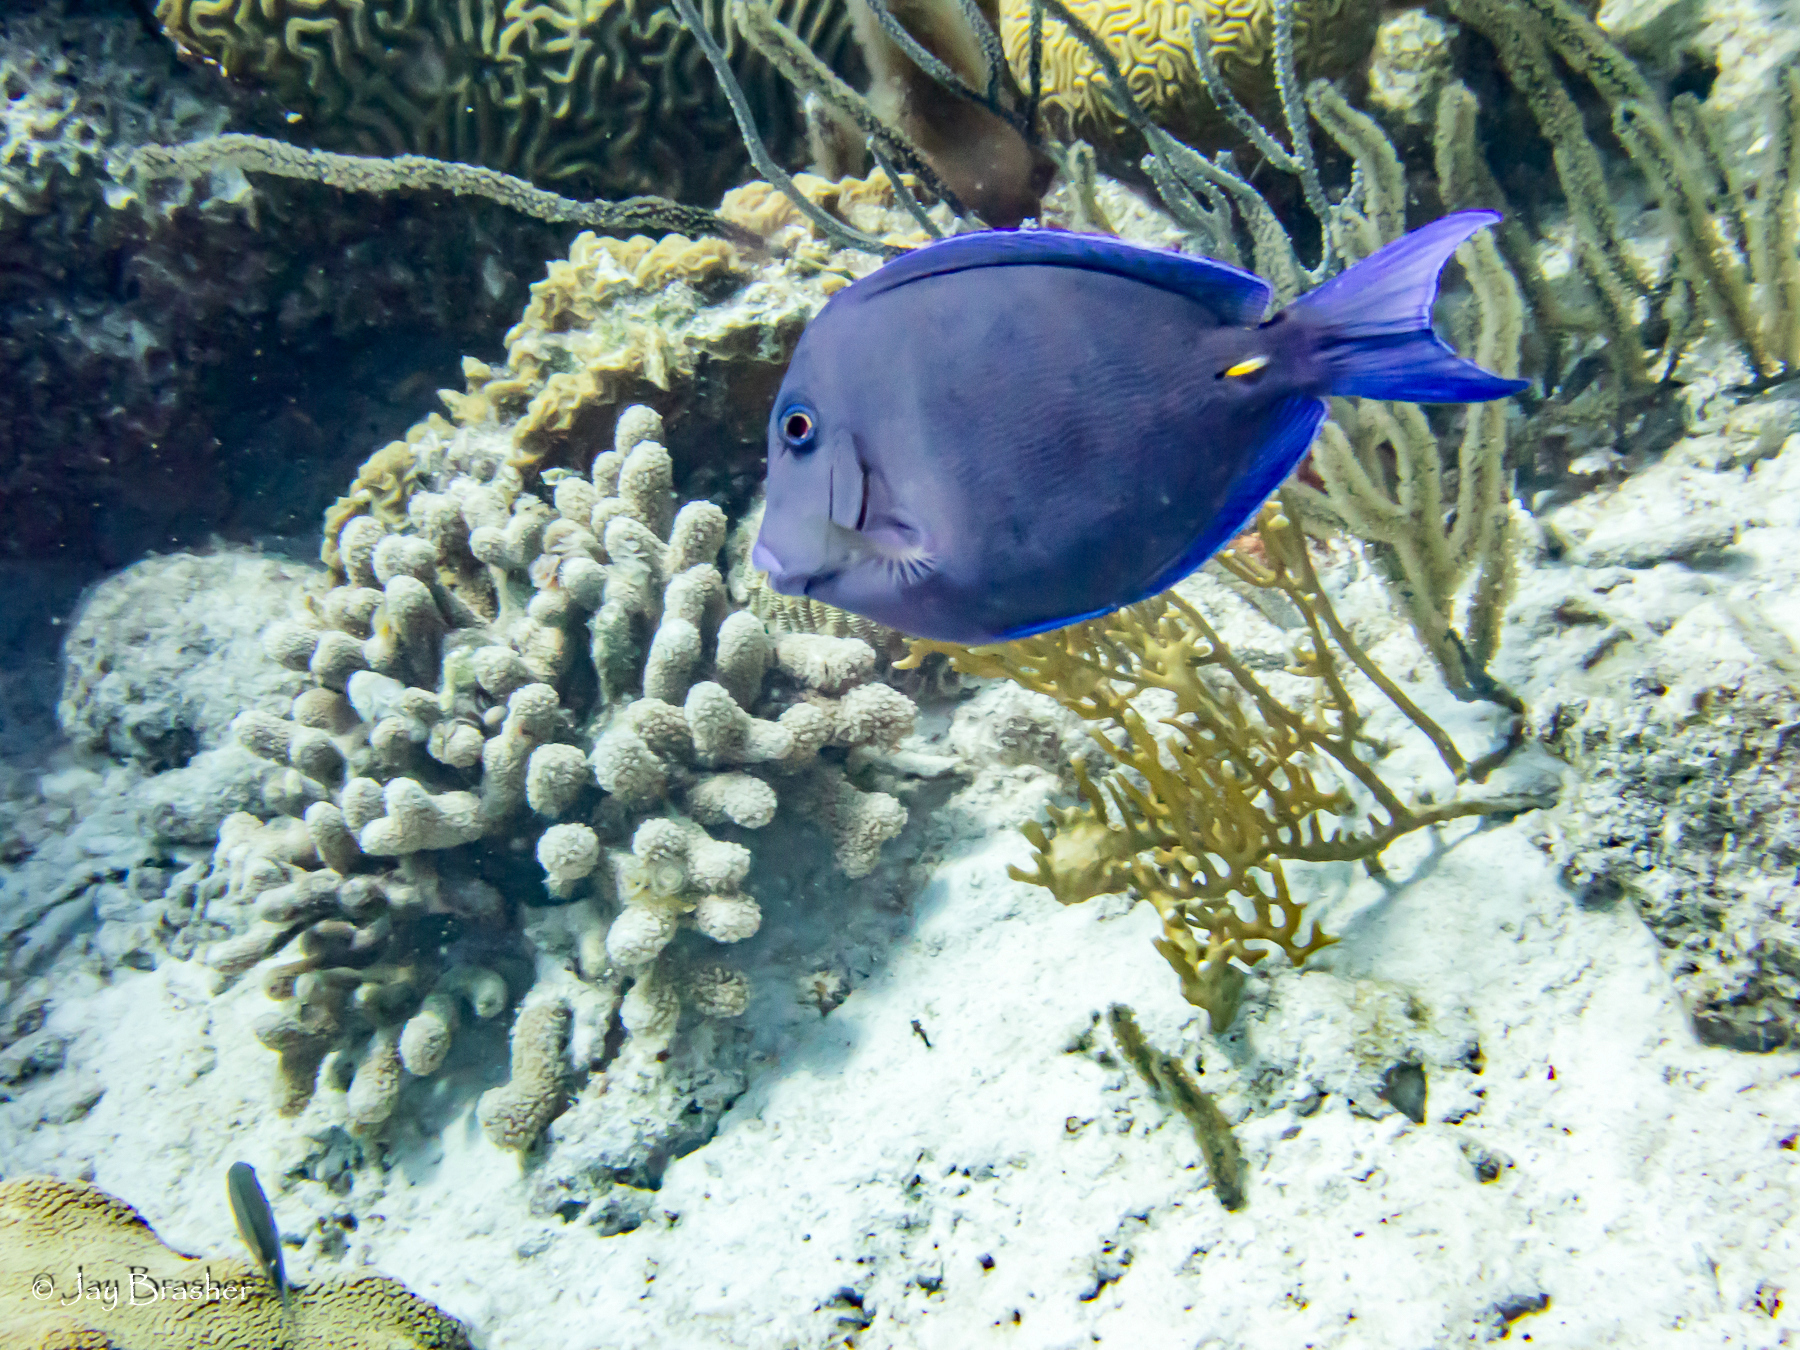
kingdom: Animalia
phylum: Cnidaria
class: Anthozoa
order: Scleractinia
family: Poritidae
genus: Porites
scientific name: Porites porites
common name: Finger coral
